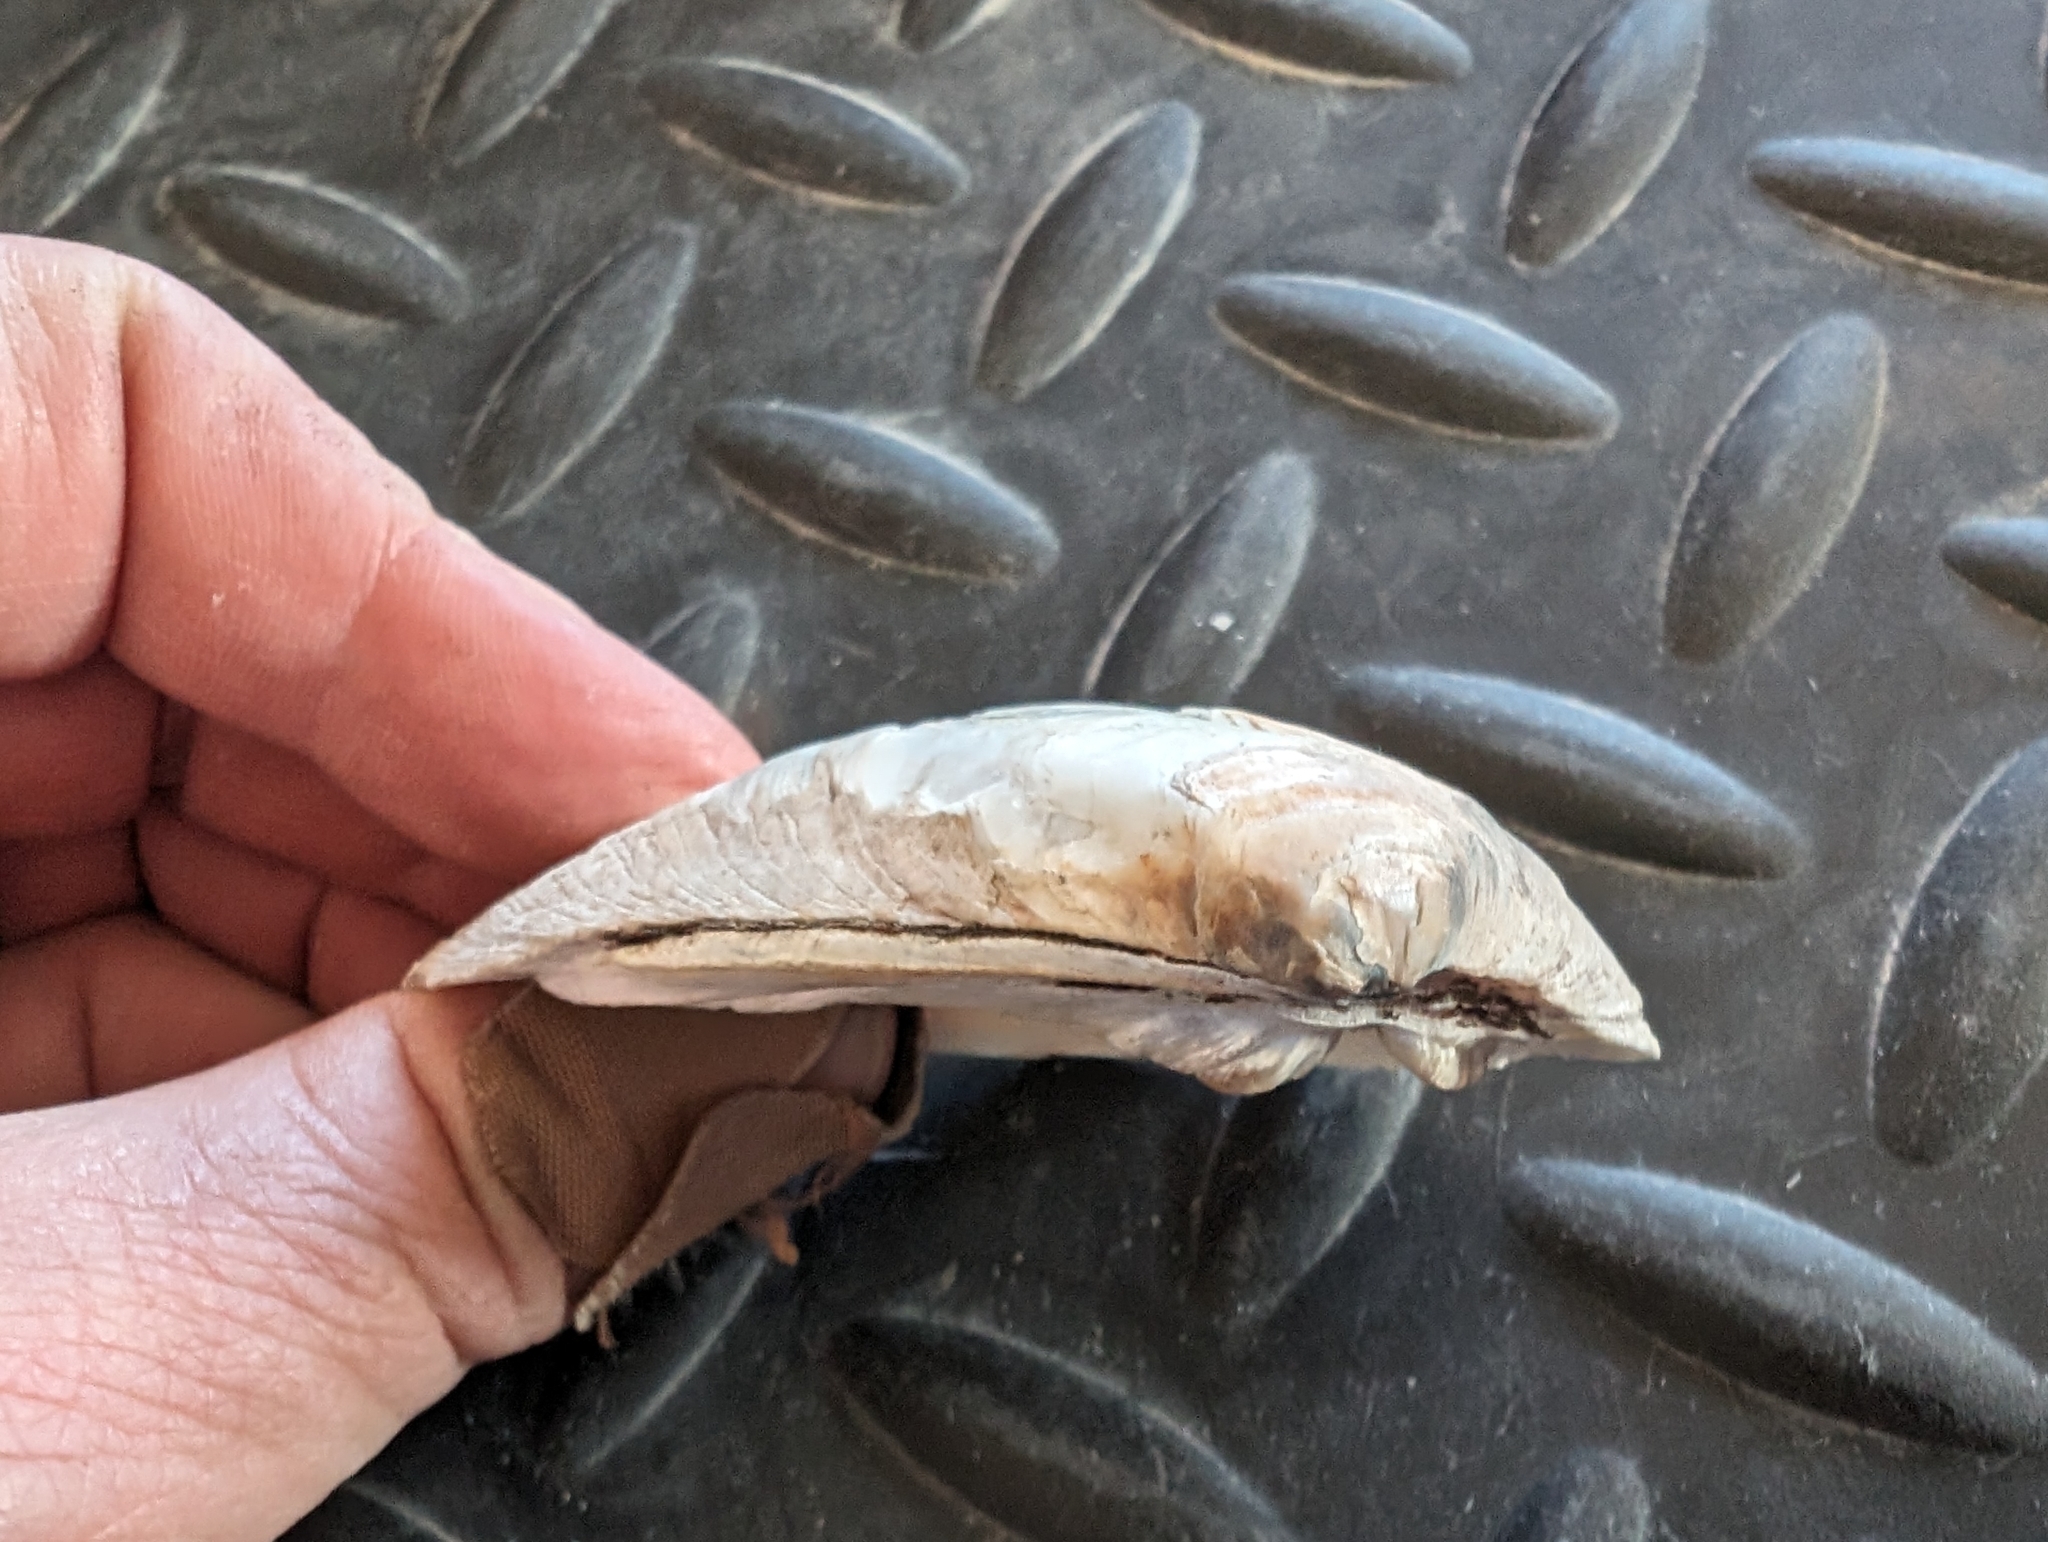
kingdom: Animalia
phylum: Mollusca
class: Bivalvia
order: Unionida
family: Unionidae
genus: Pleurobema
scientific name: Pleurobema sintoxia
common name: Round pigtoe
